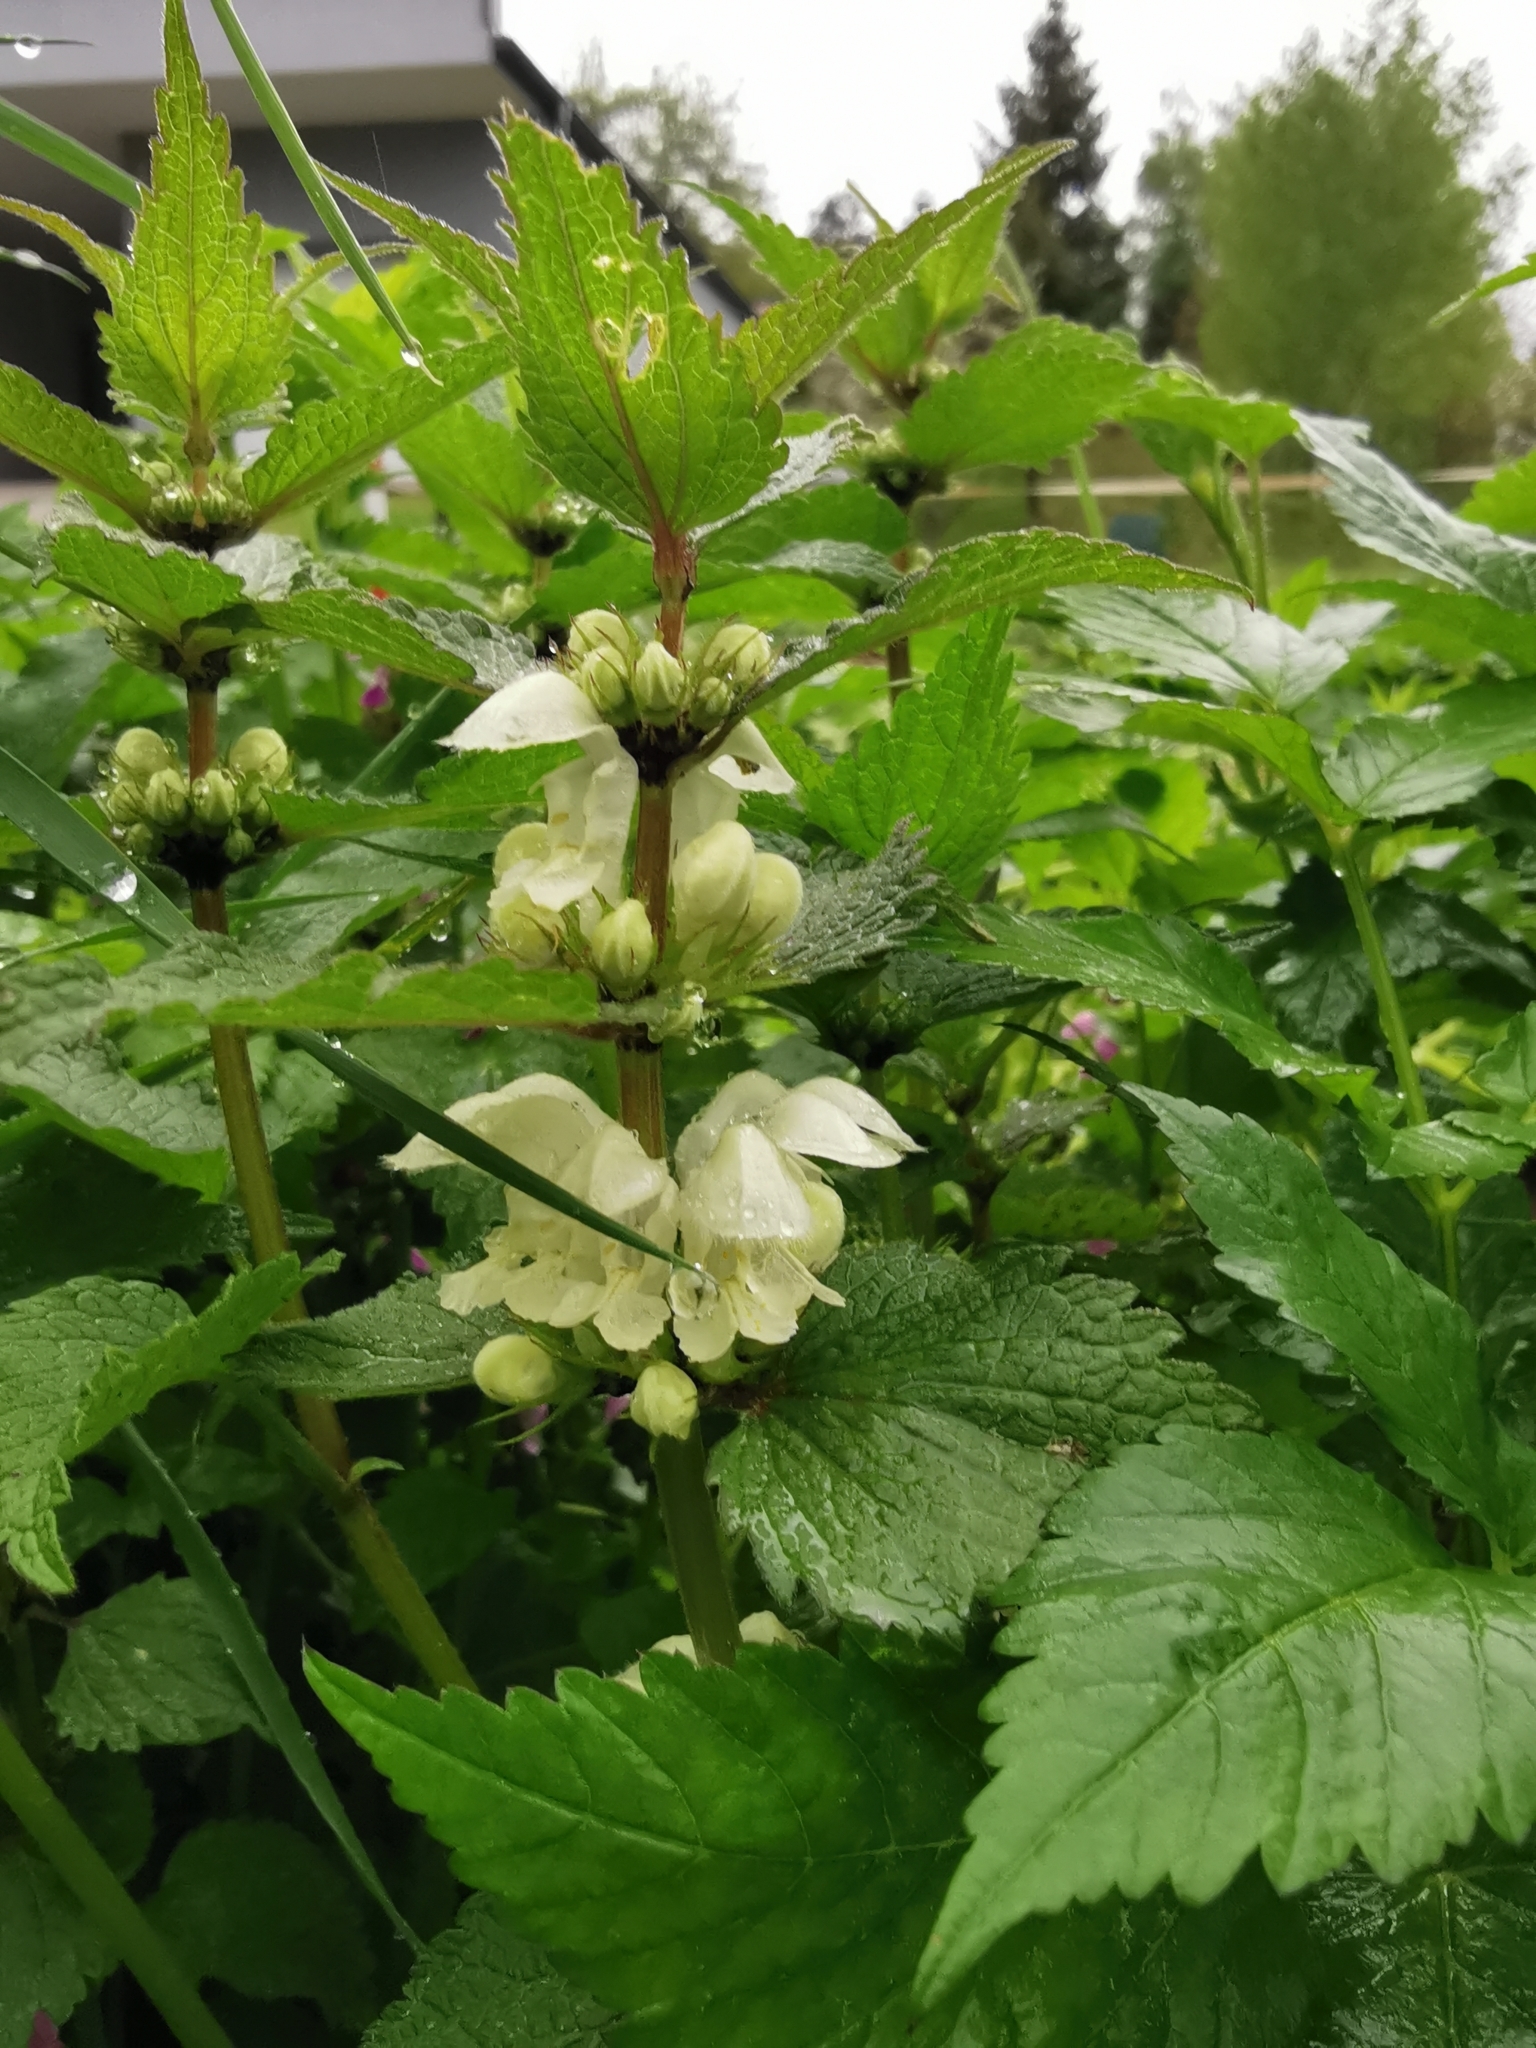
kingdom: Plantae
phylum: Tracheophyta
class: Magnoliopsida
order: Lamiales
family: Lamiaceae
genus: Lamium
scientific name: Lamium album
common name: White dead-nettle
